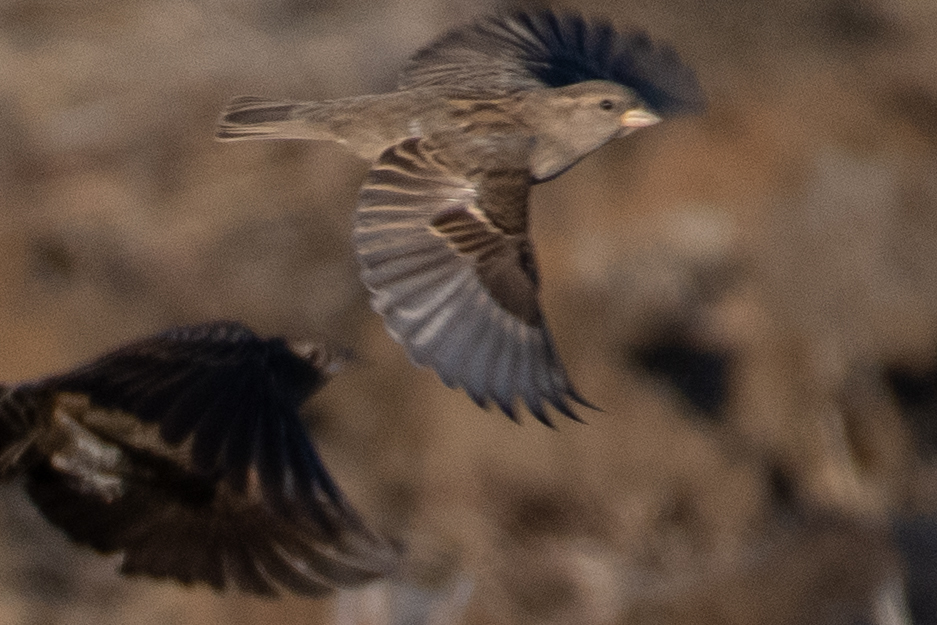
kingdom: Animalia
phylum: Chordata
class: Aves
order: Passeriformes
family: Passeridae
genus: Passer
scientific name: Passer domesticus
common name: House sparrow
